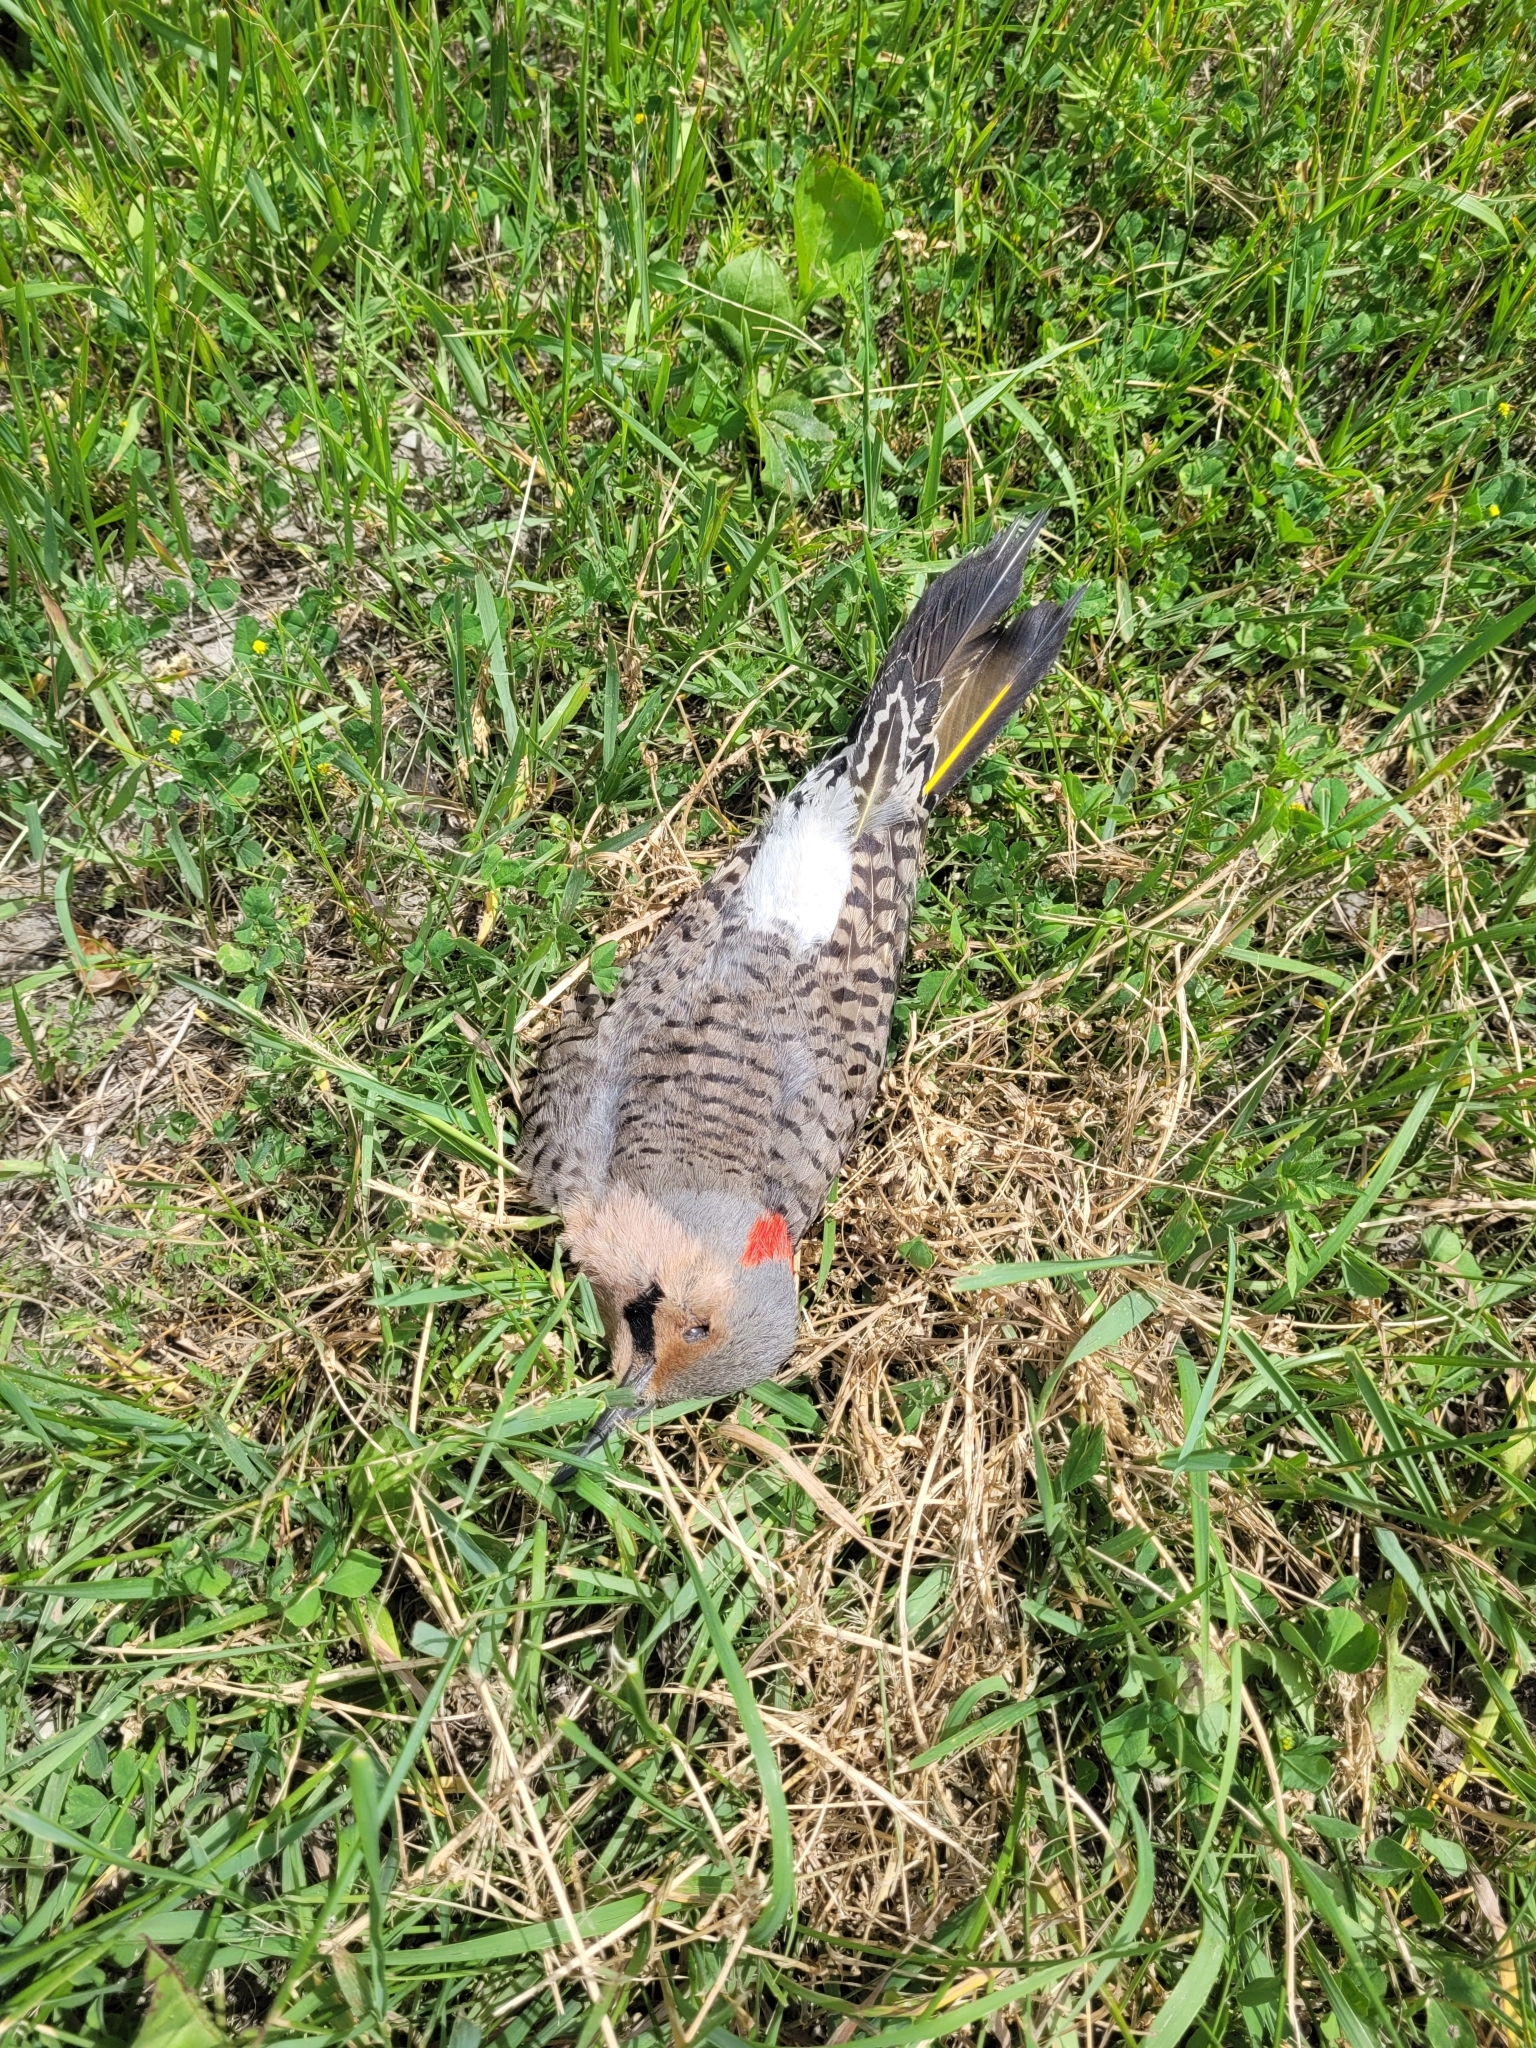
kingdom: Animalia
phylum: Chordata
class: Aves
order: Piciformes
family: Picidae
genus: Colaptes
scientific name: Colaptes auratus
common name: Northern flicker
